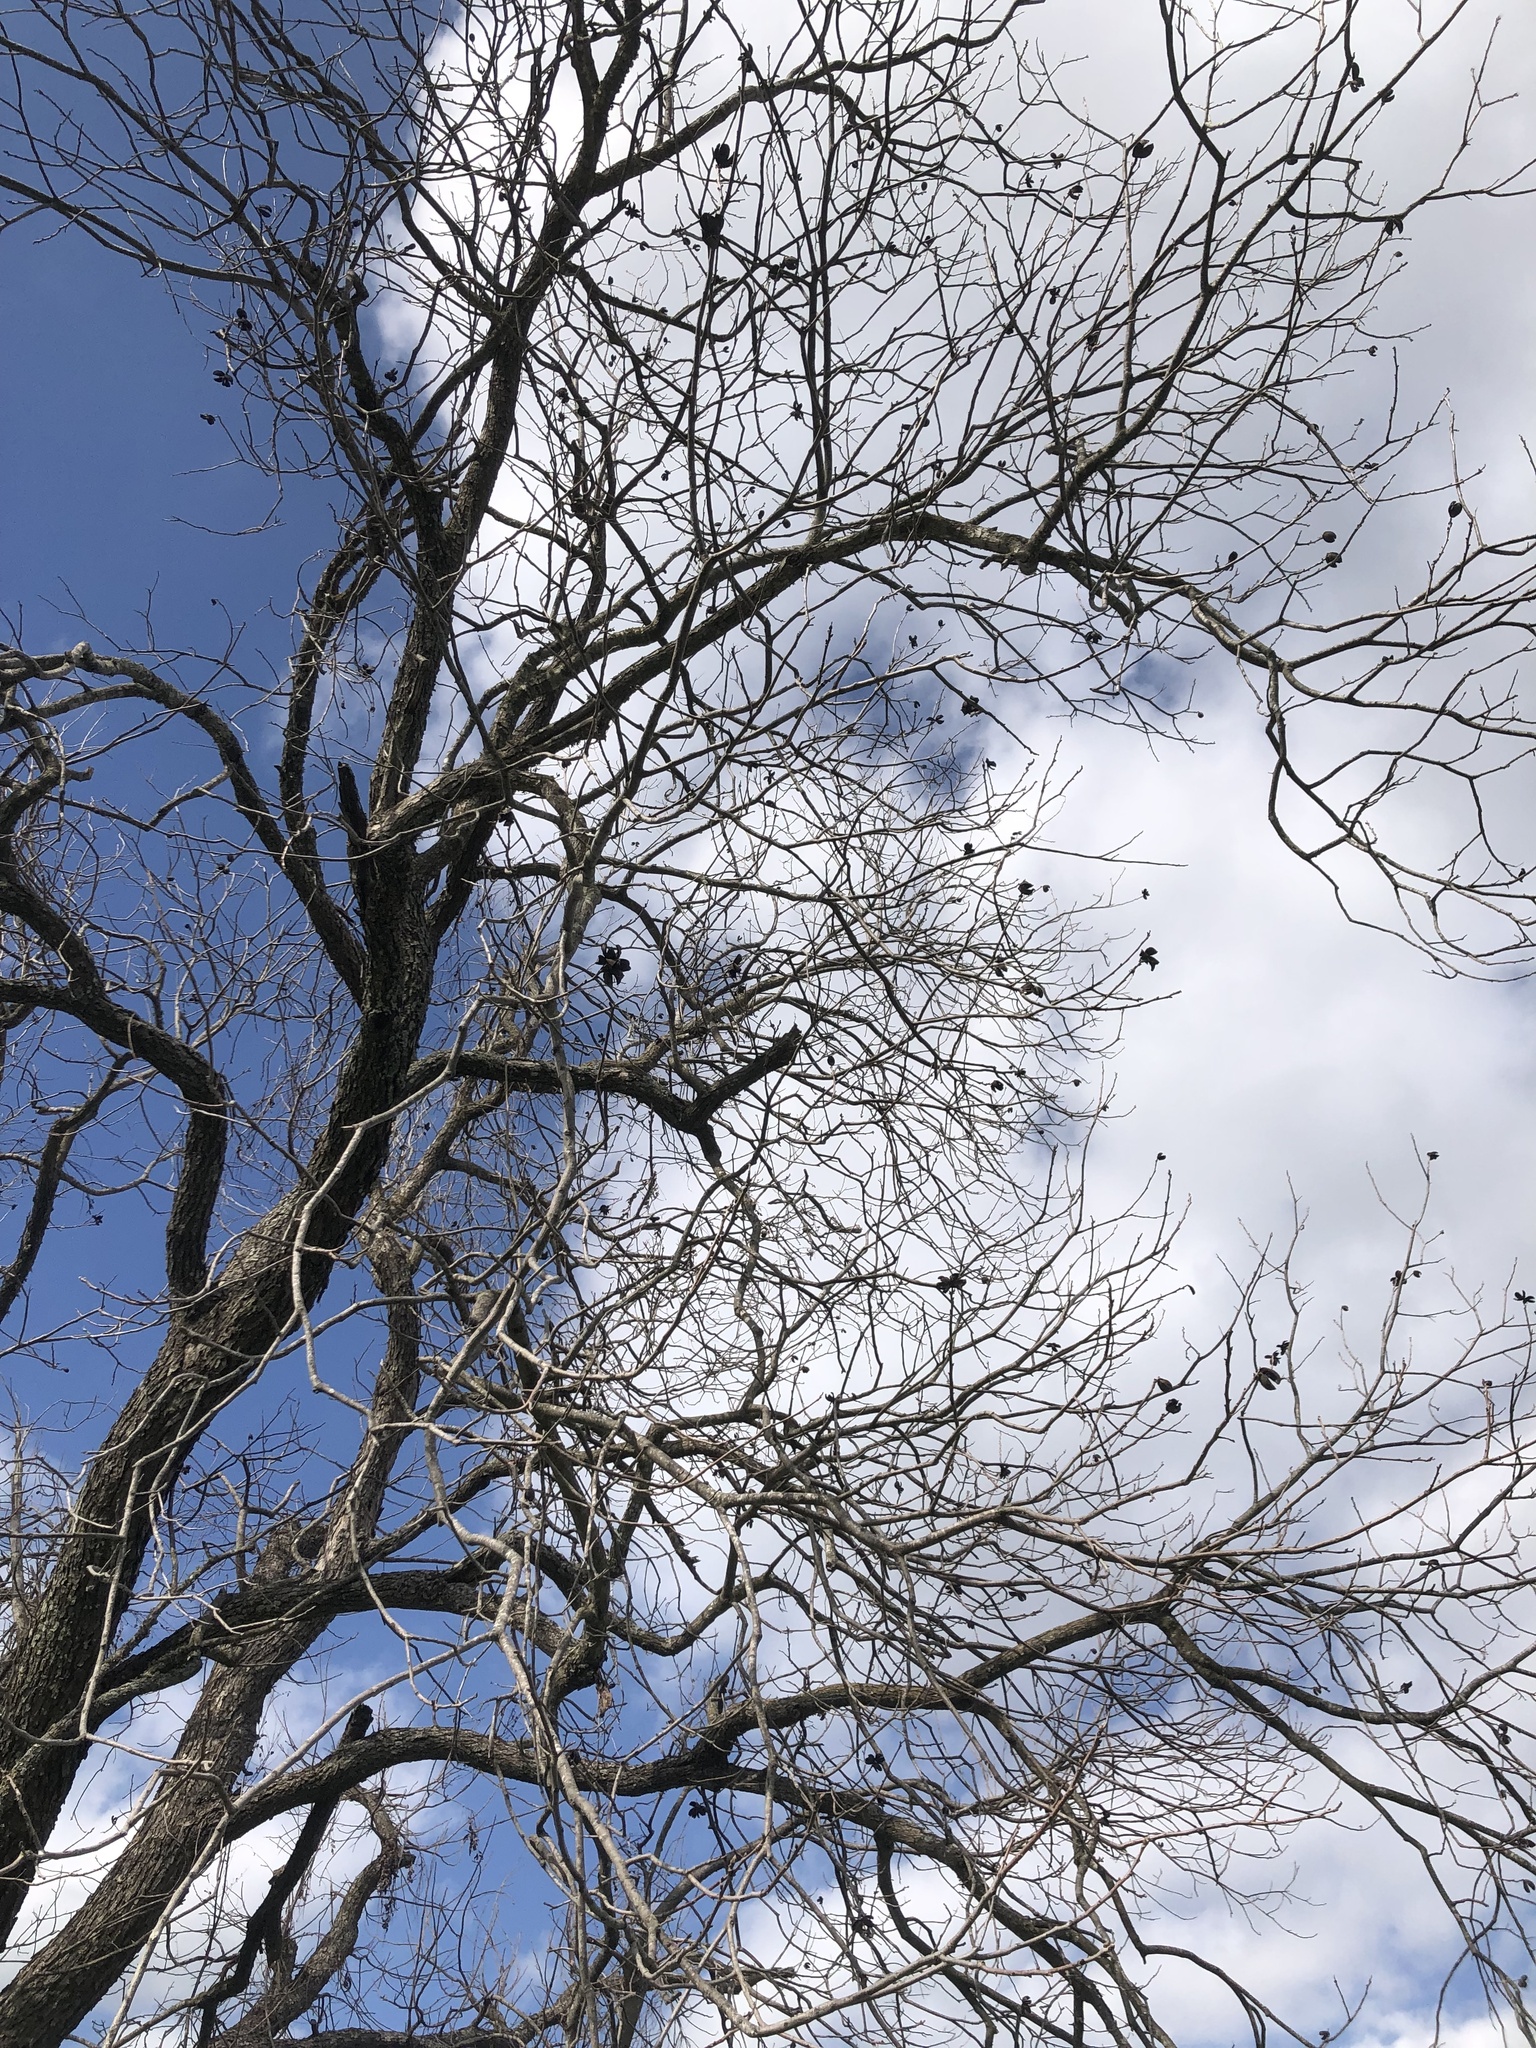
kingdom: Plantae
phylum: Tracheophyta
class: Magnoliopsida
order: Fagales
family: Juglandaceae
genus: Carya
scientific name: Carya illinoinensis
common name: Pecan
